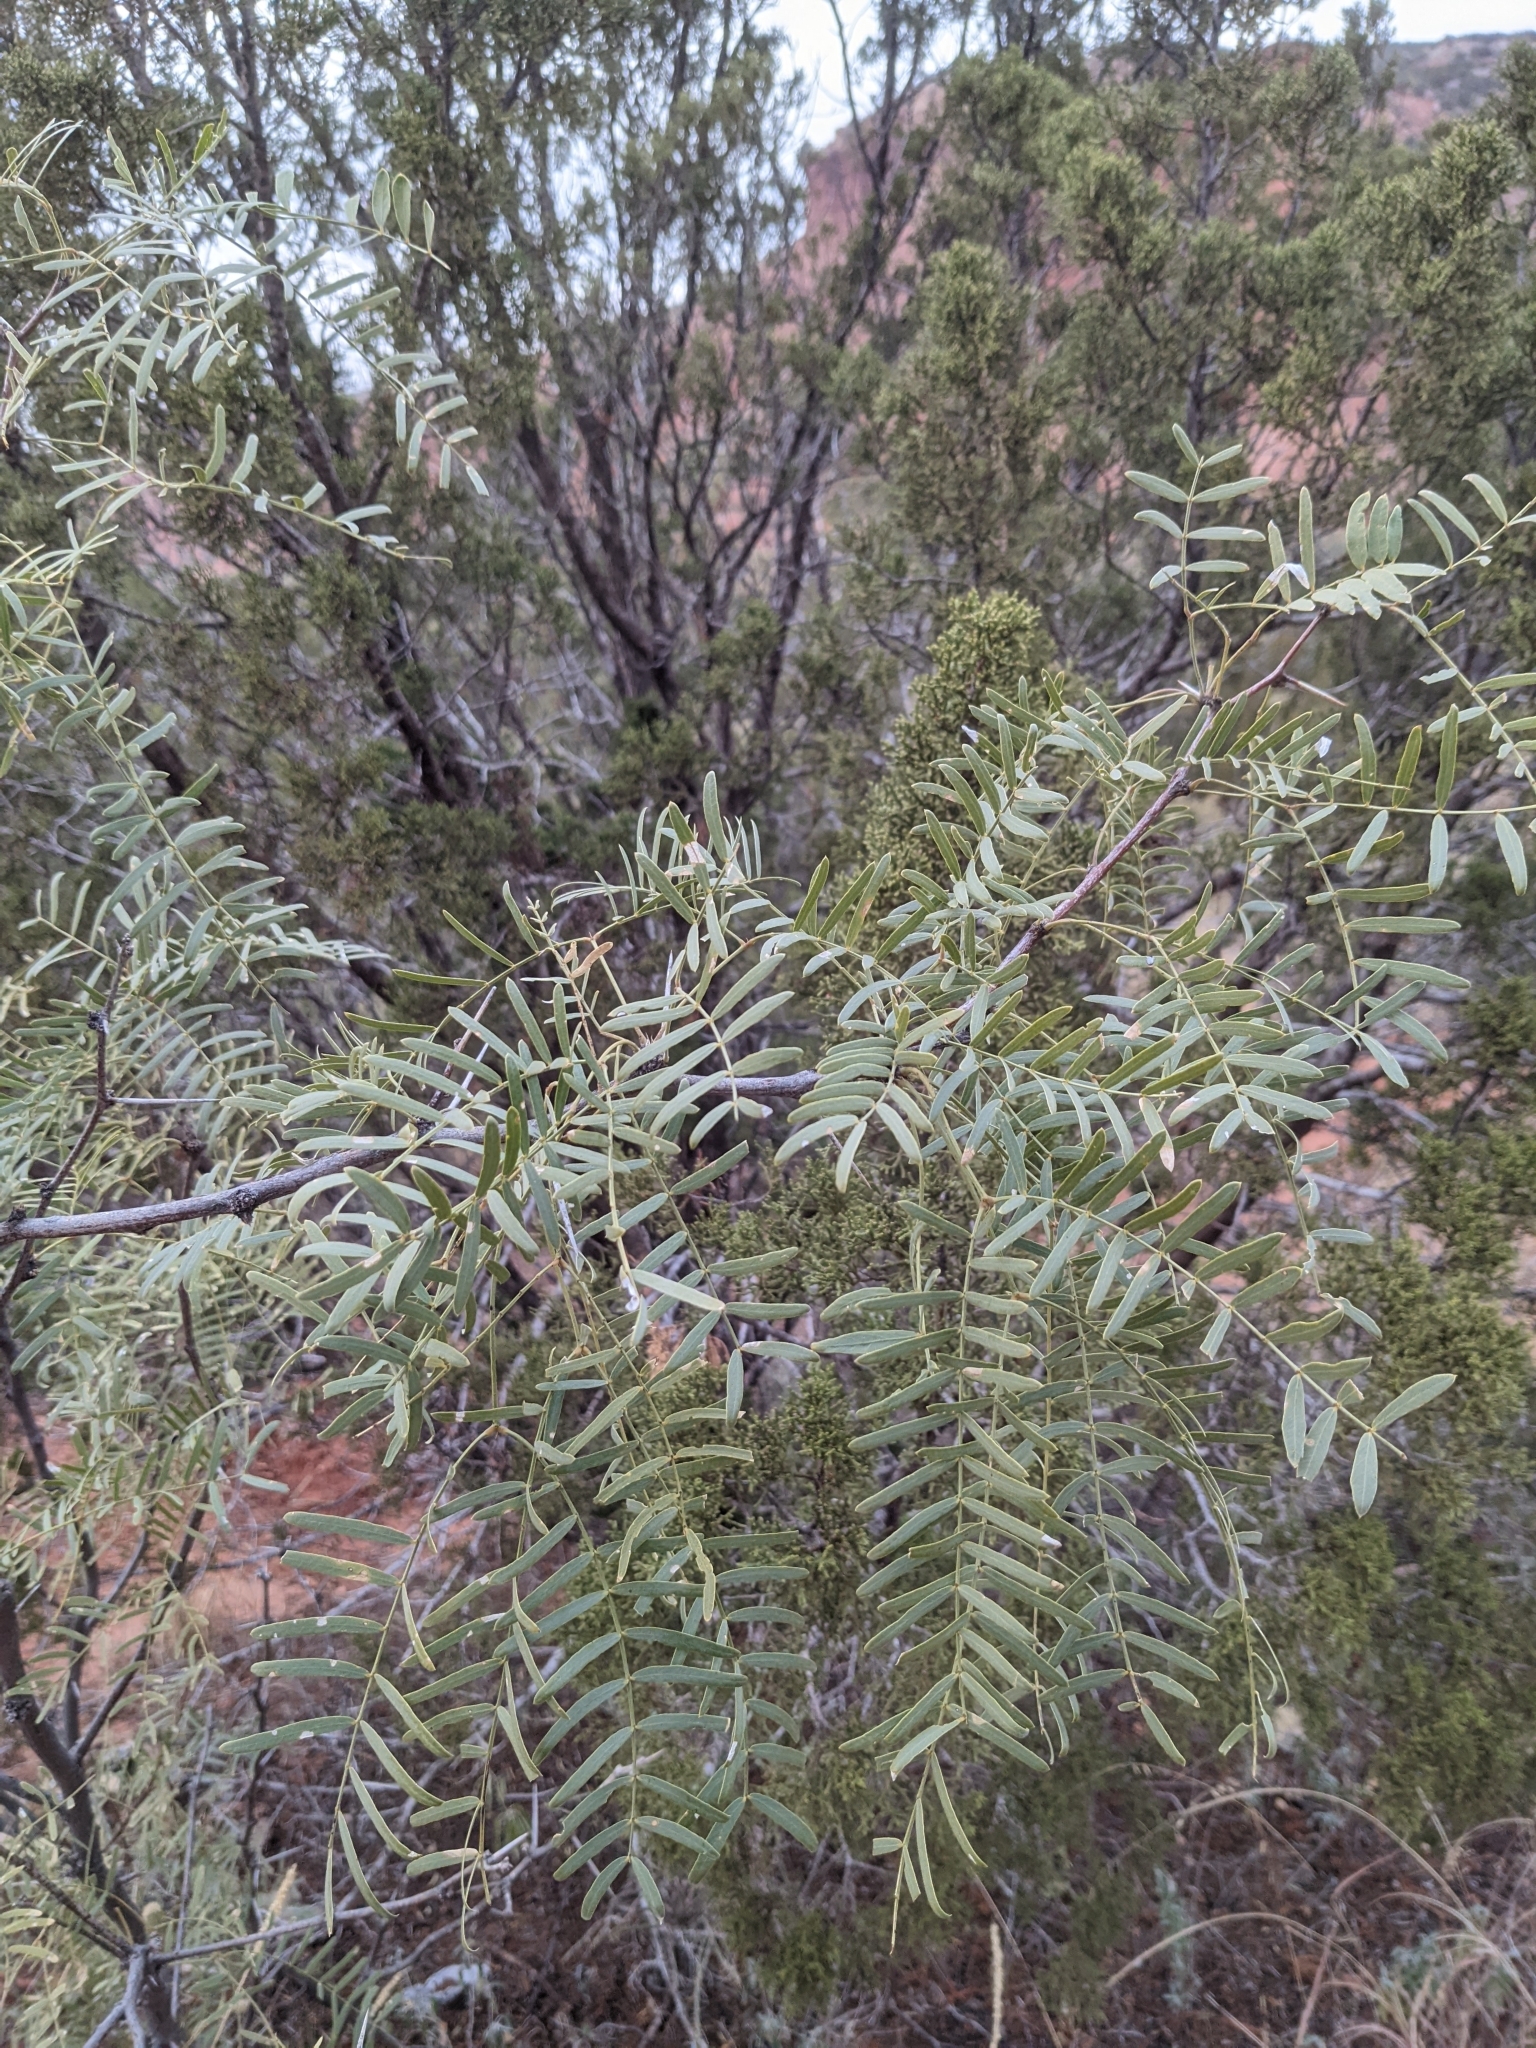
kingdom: Plantae
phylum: Tracheophyta
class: Magnoliopsida
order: Fabales
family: Fabaceae
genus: Prosopis
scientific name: Prosopis glandulosa
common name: Honey mesquite
